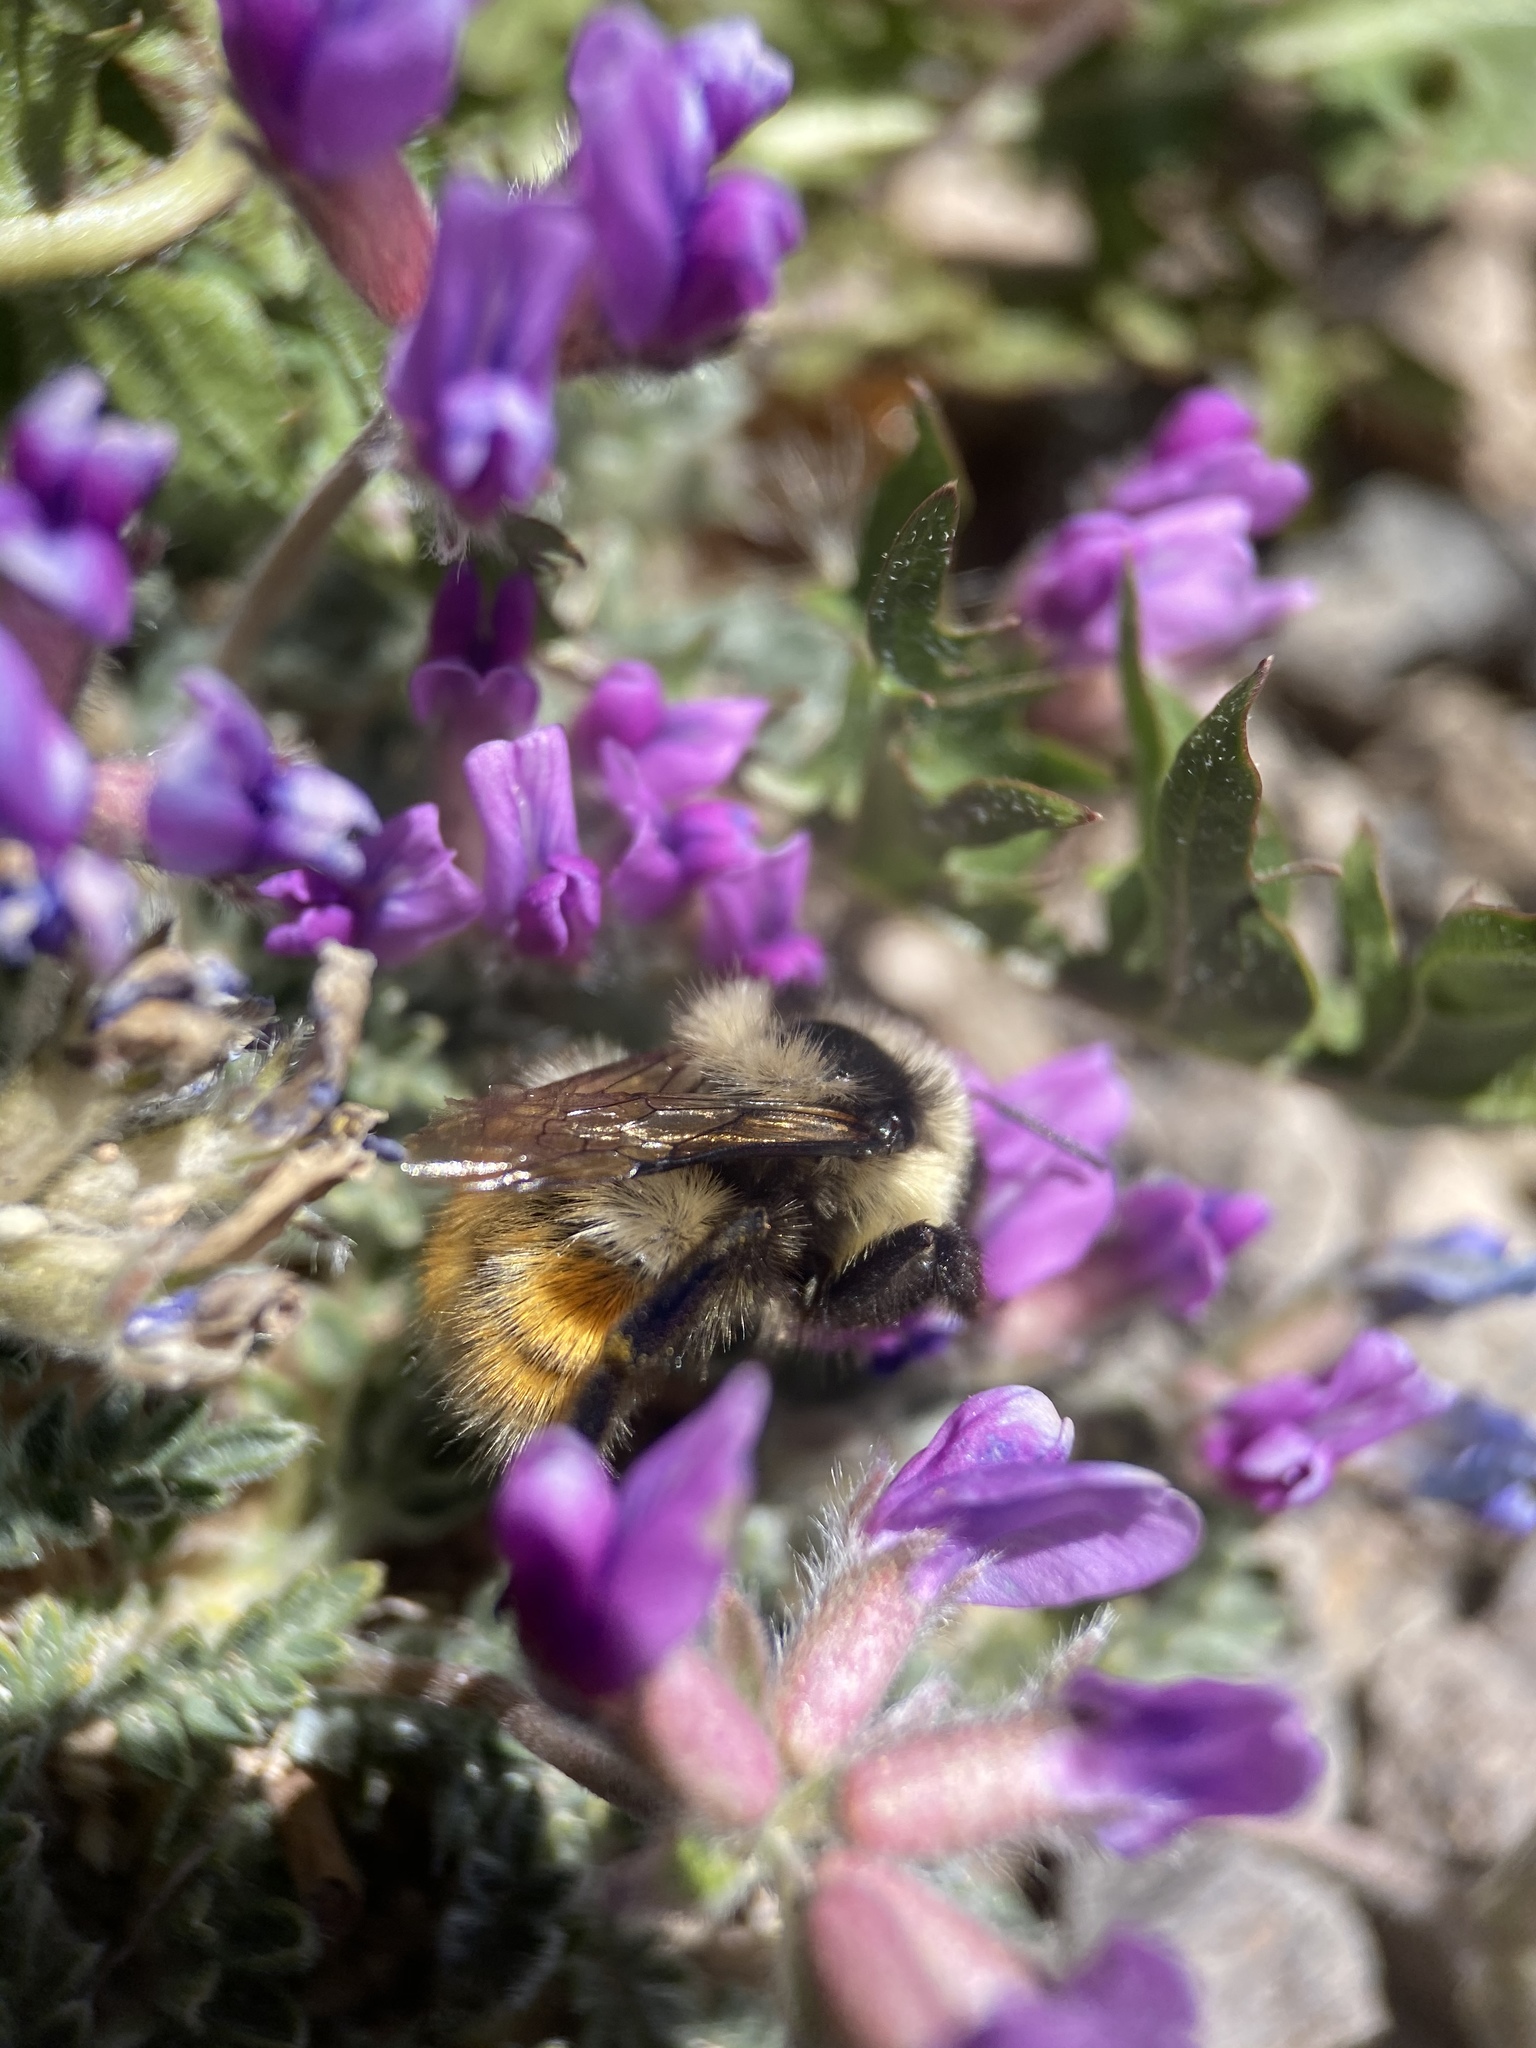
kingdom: Animalia
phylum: Arthropoda
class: Insecta
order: Hymenoptera
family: Apidae
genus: Bombus
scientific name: Bombus
